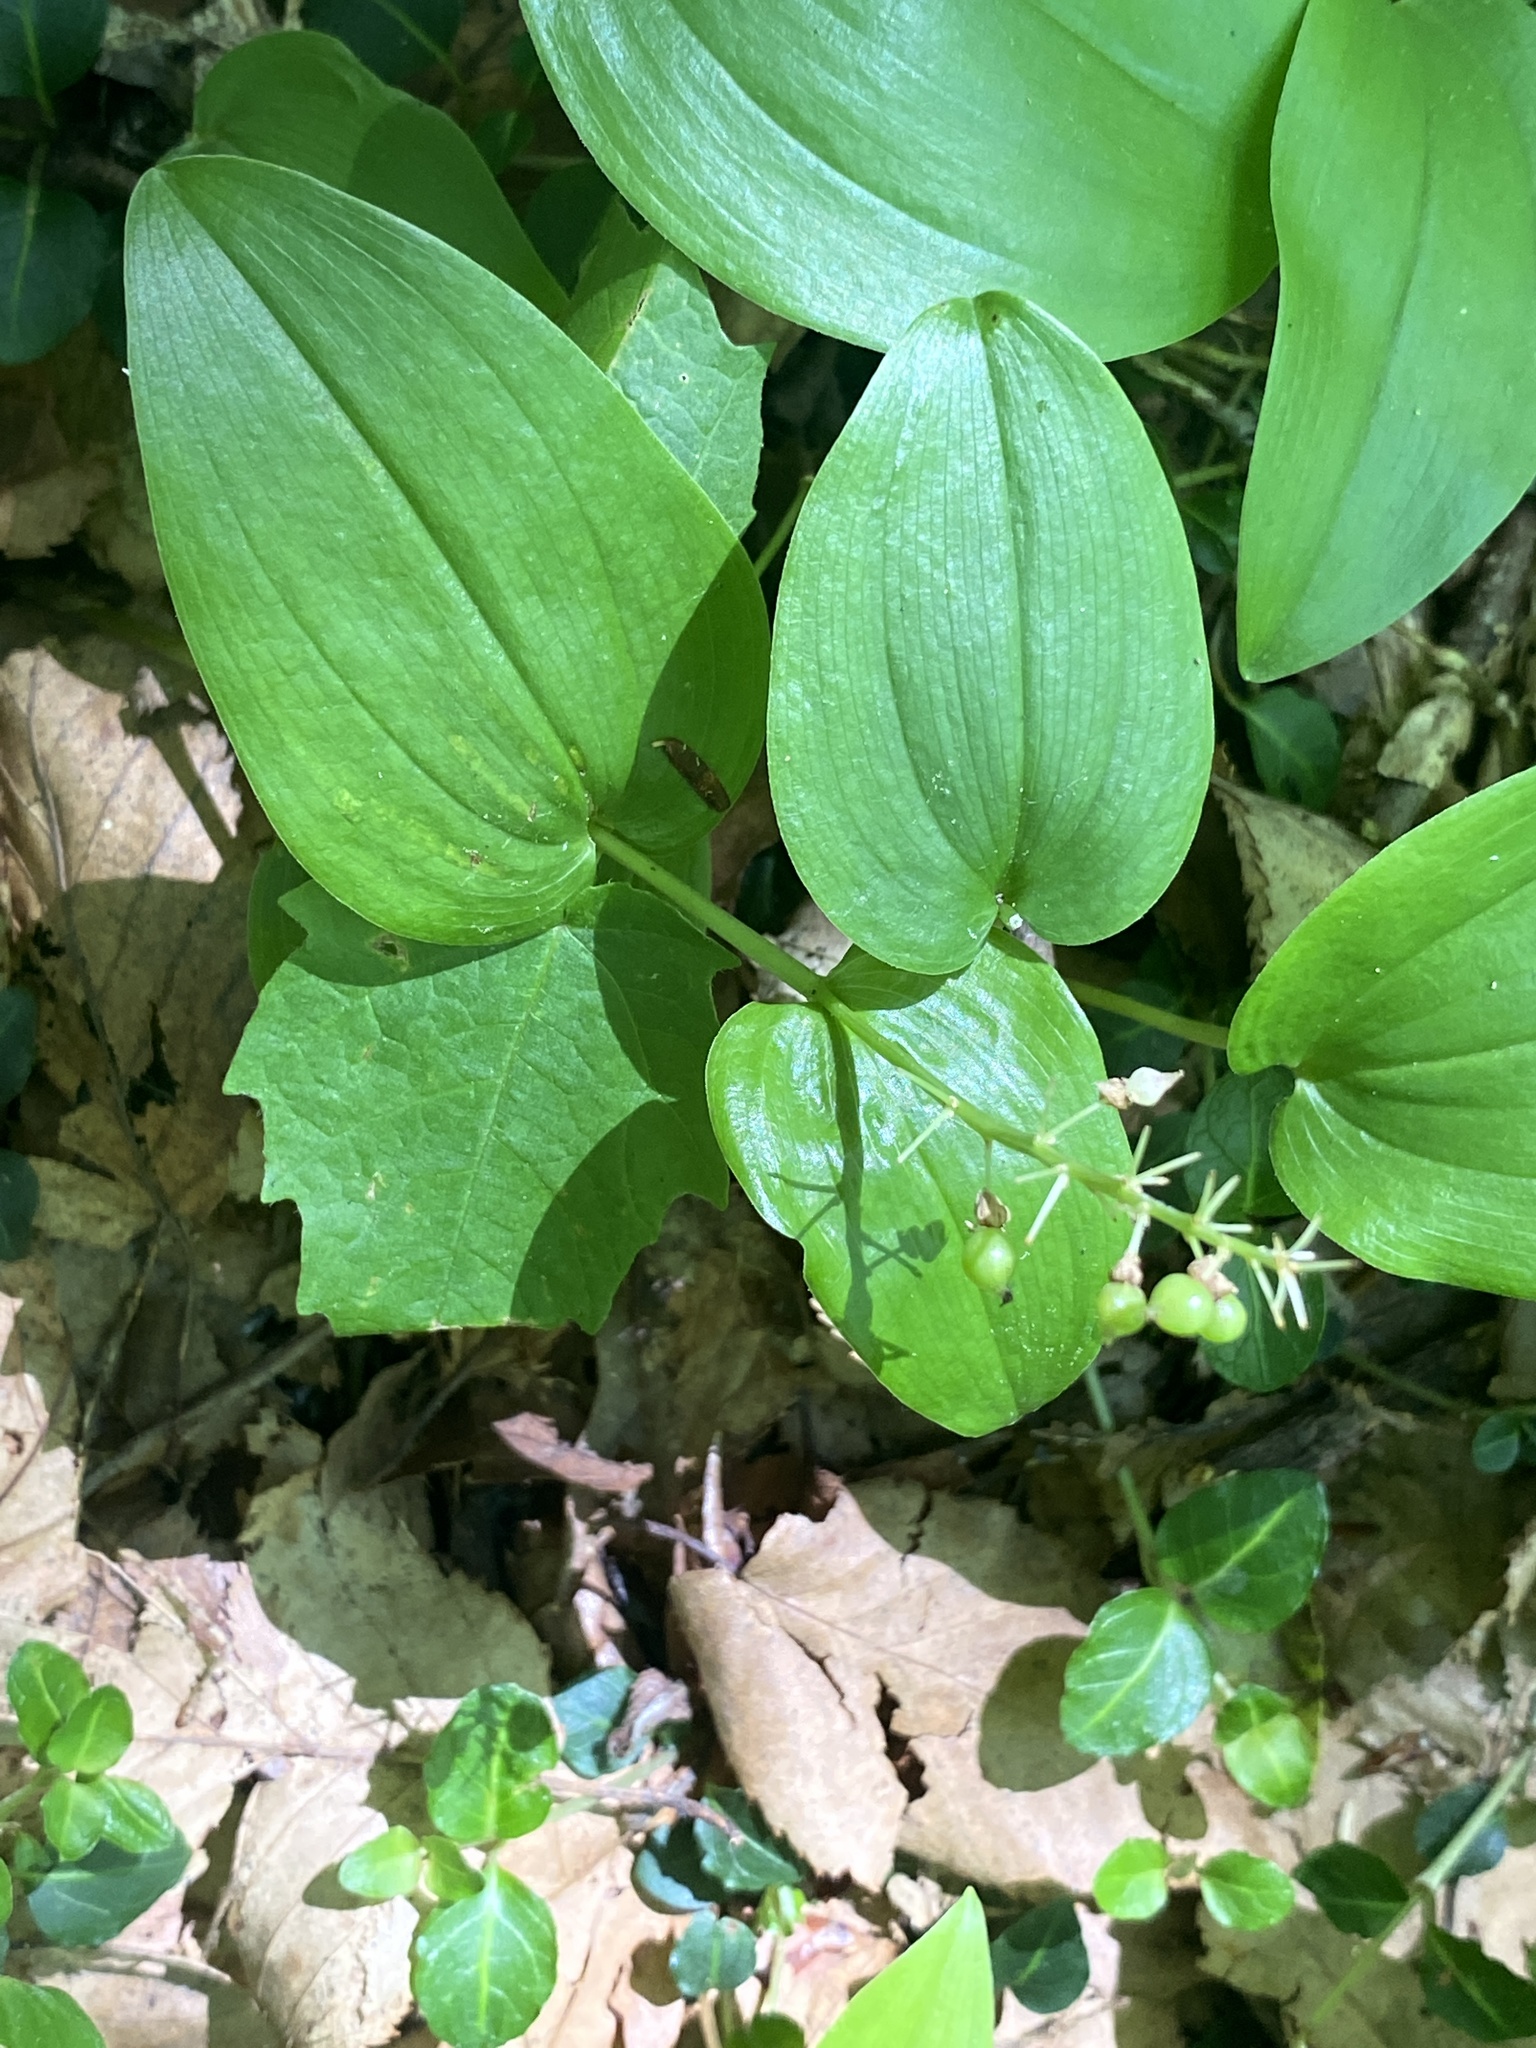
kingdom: Plantae
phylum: Tracheophyta
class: Liliopsida
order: Asparagales
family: Asparagaceae
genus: Maianthemum
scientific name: Maianthemum canadense
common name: False lily-of-the-valley
